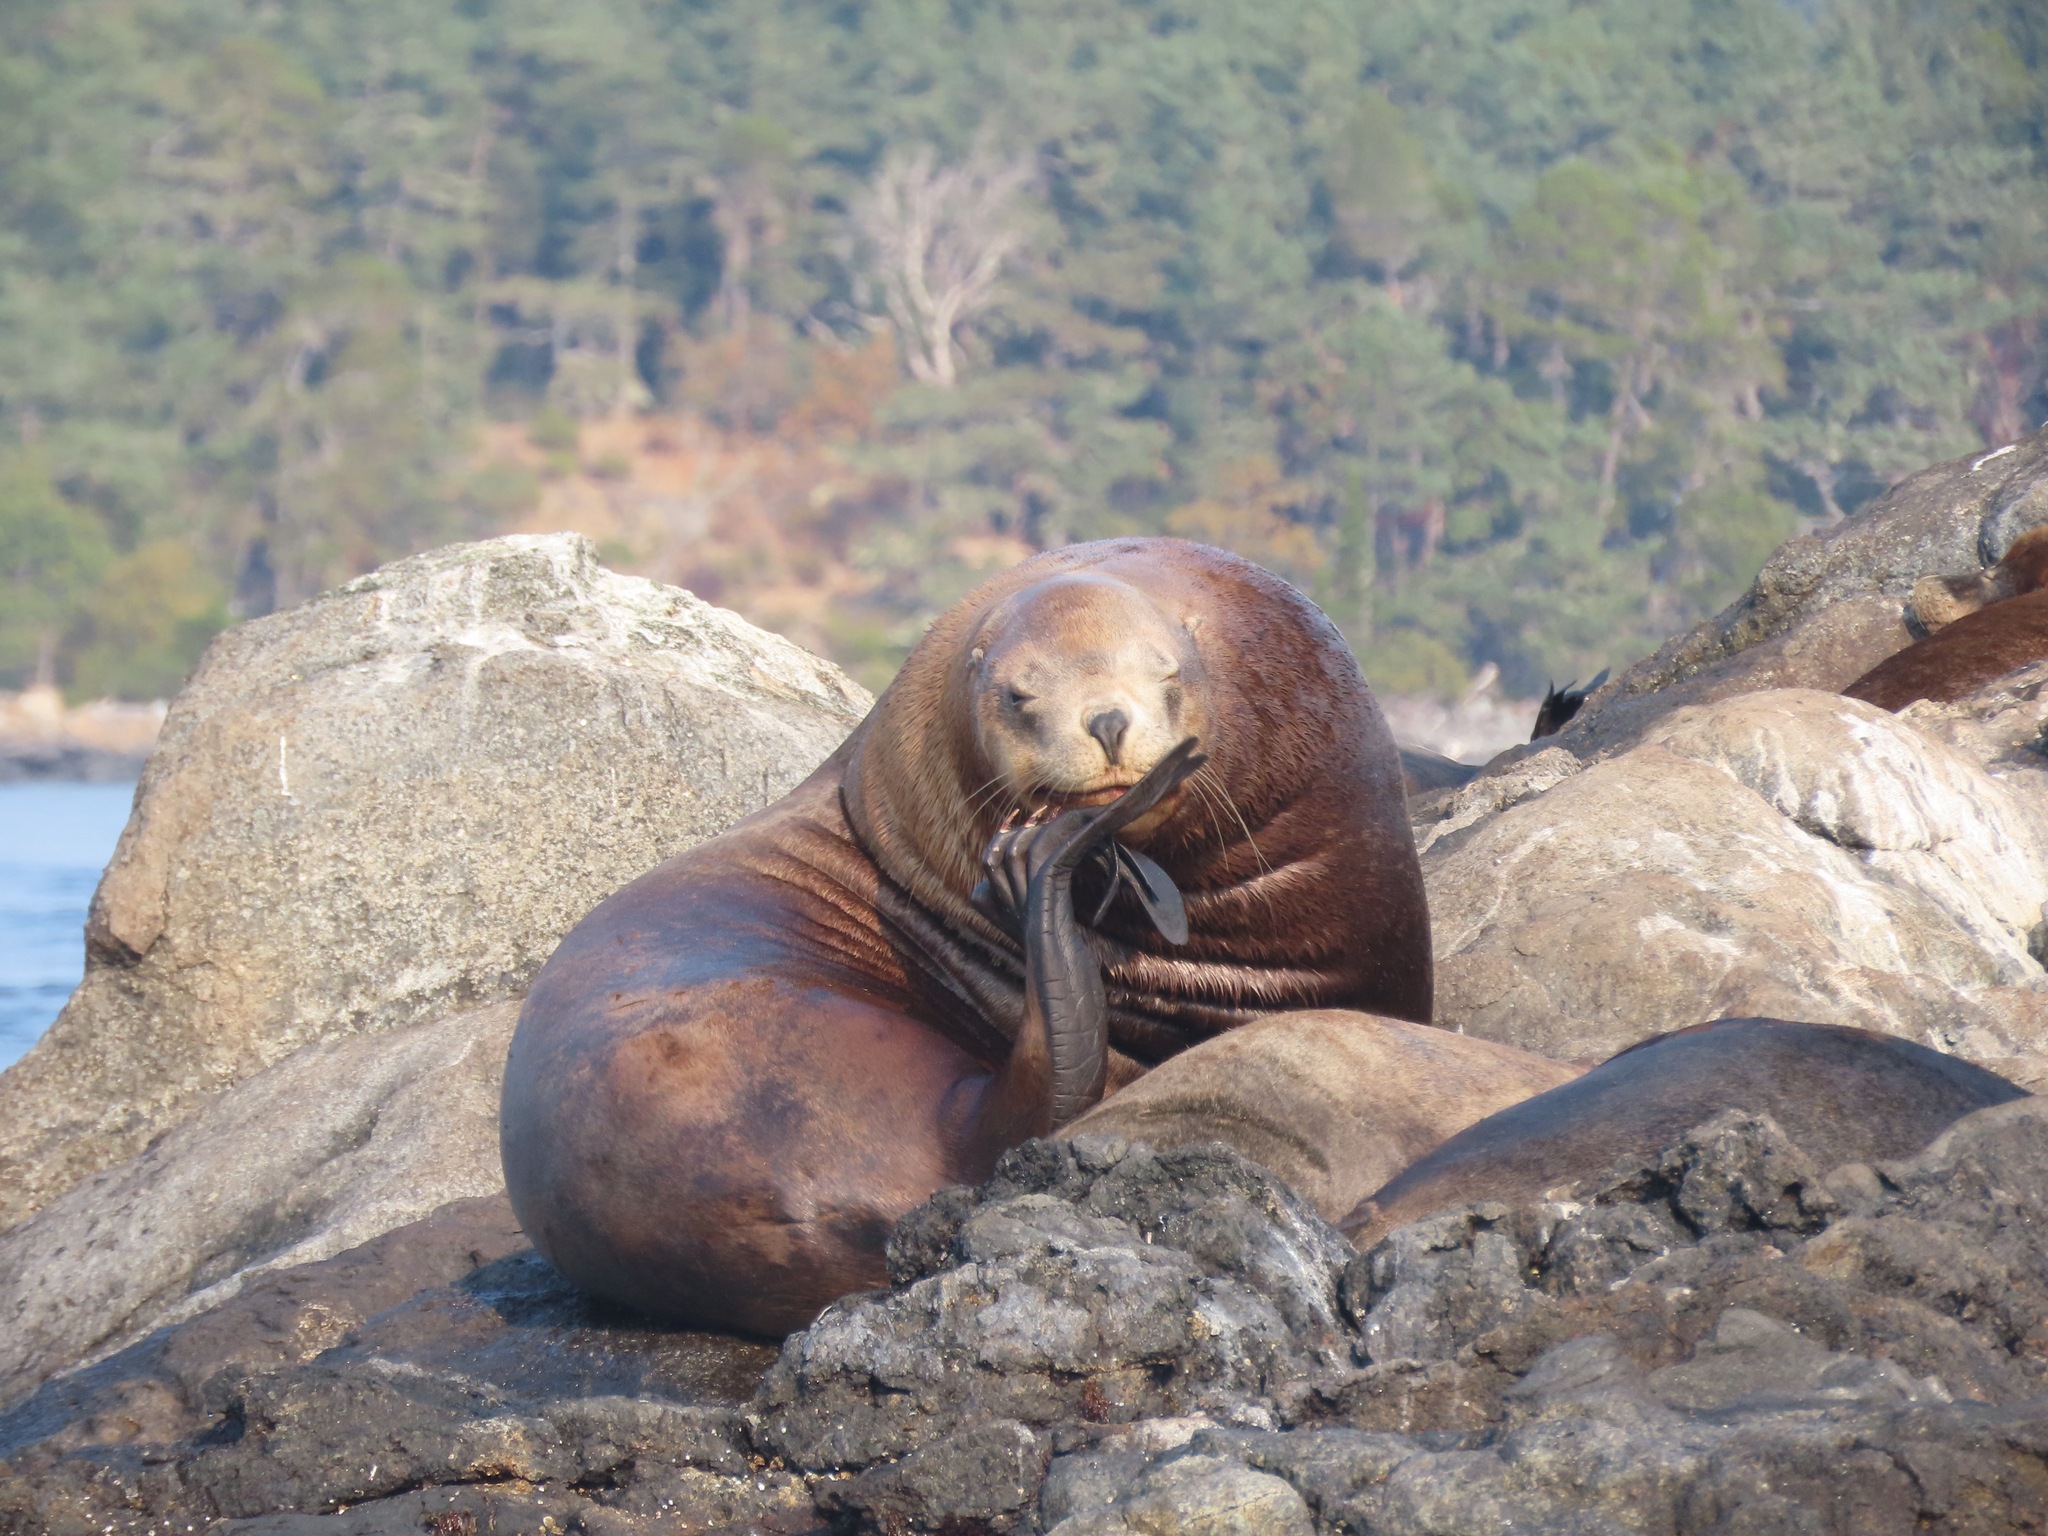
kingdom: Animalia
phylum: Chordata
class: Mammalia
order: Carnivora
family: Otariidae
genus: Eumetopias
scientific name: Eumetopias jubatus
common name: Steller sea lion
